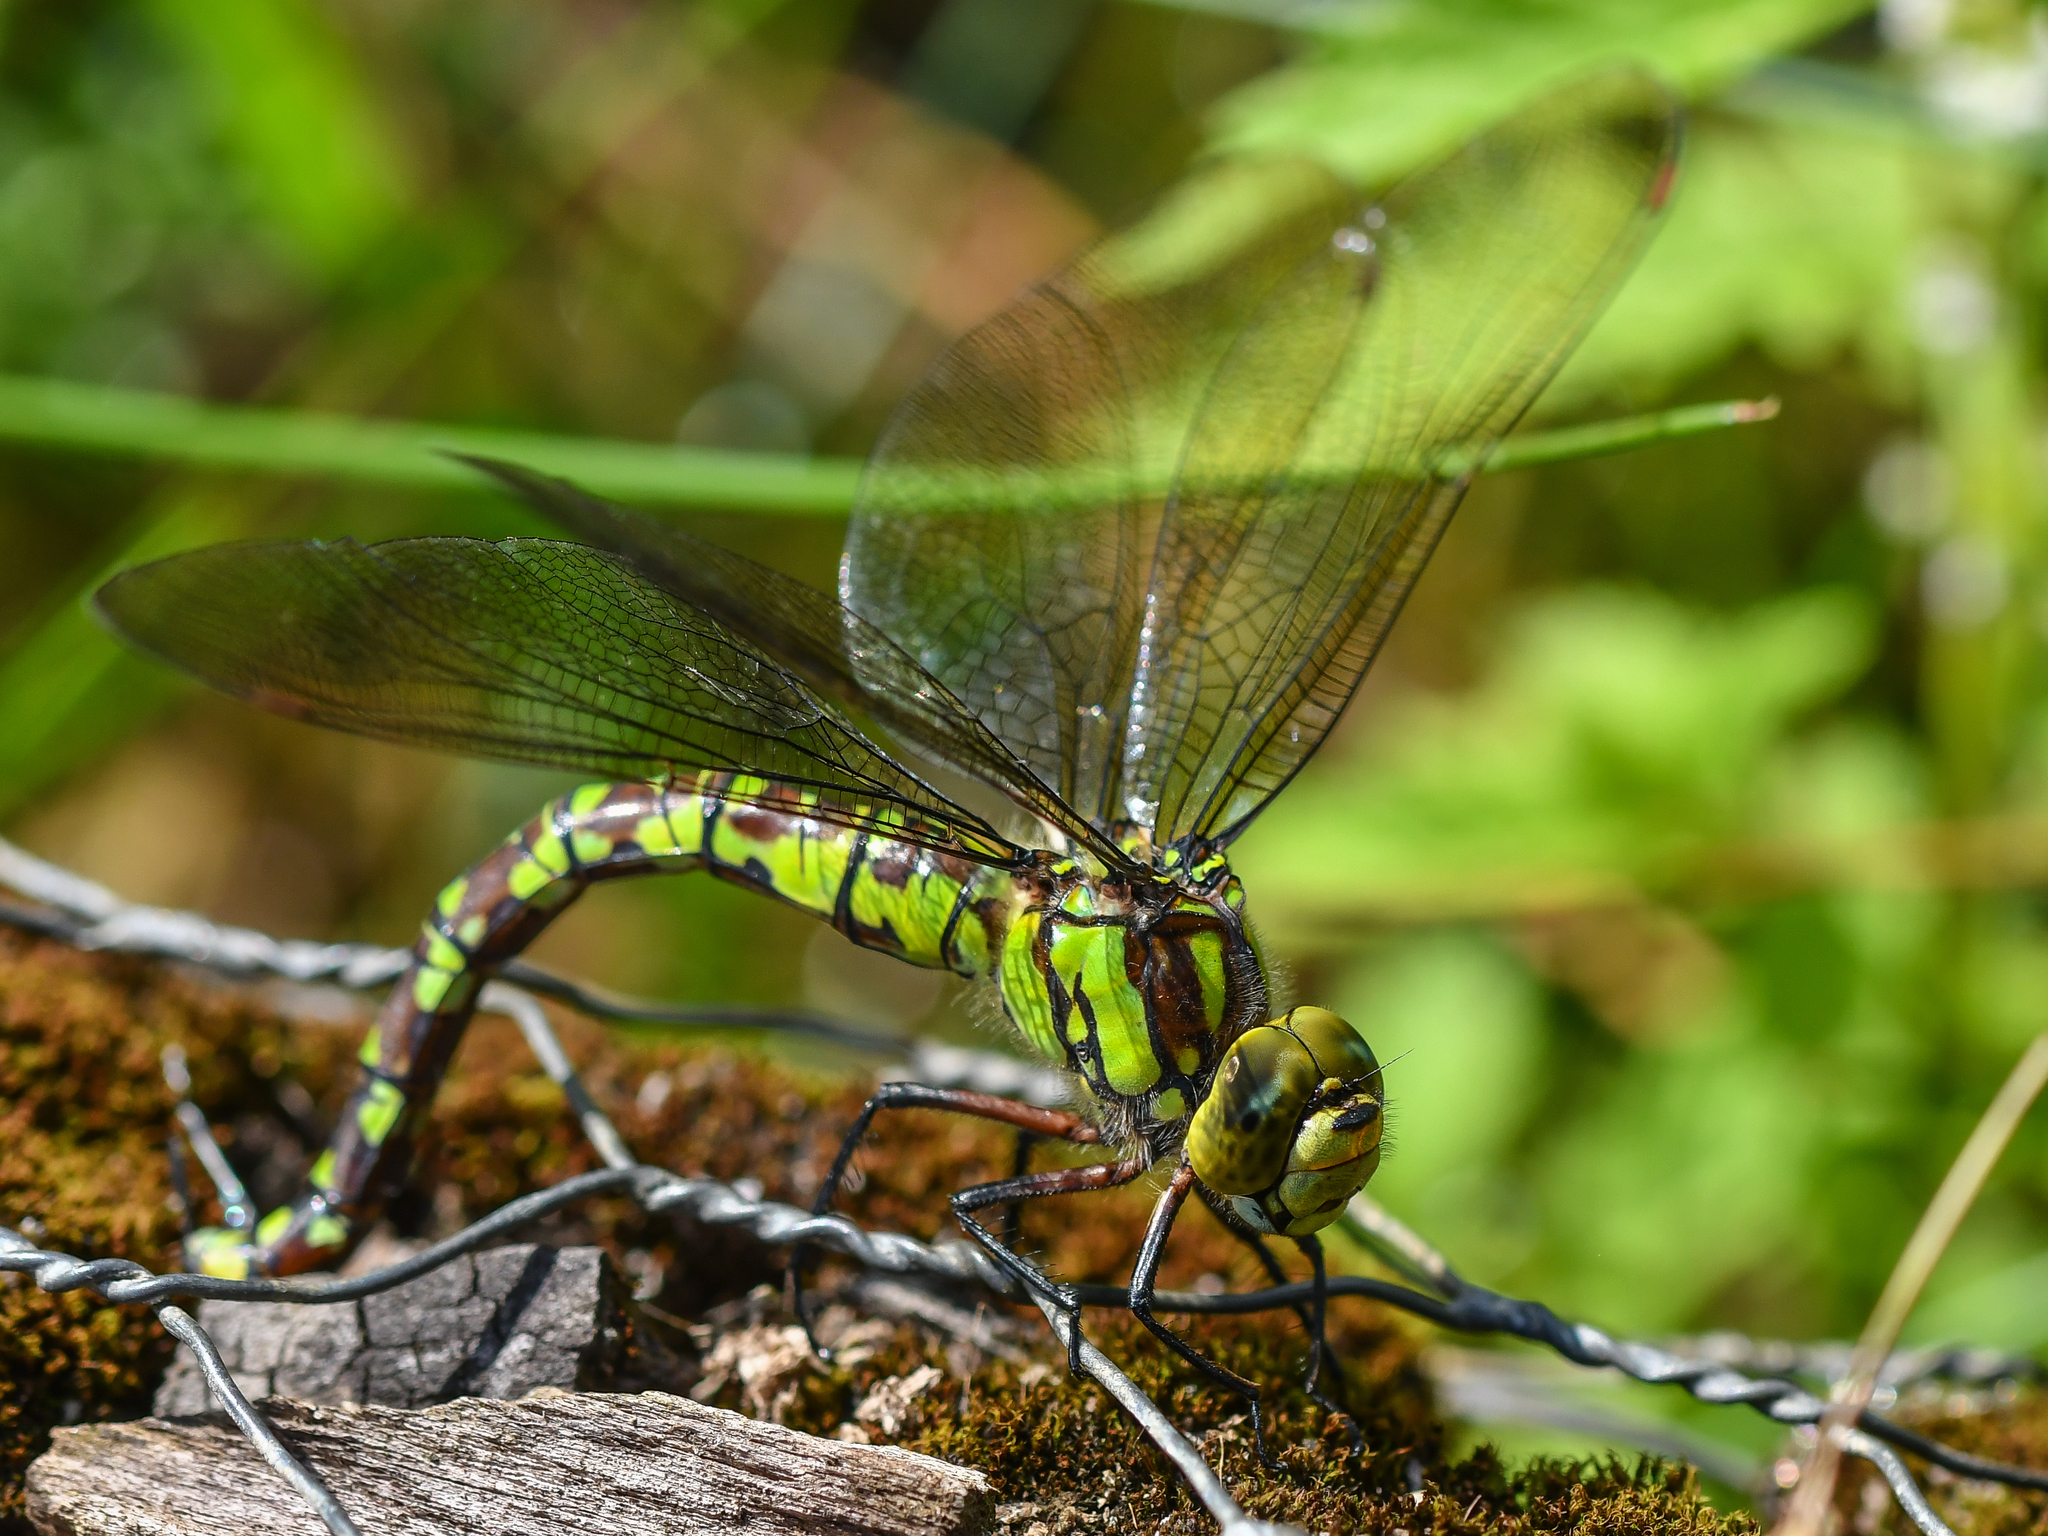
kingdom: Animalia
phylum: Arthropoda
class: Insecta
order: Odonata
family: Aeshnidae
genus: Aeshna
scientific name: Aeshna cyanea
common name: Southern hawker
